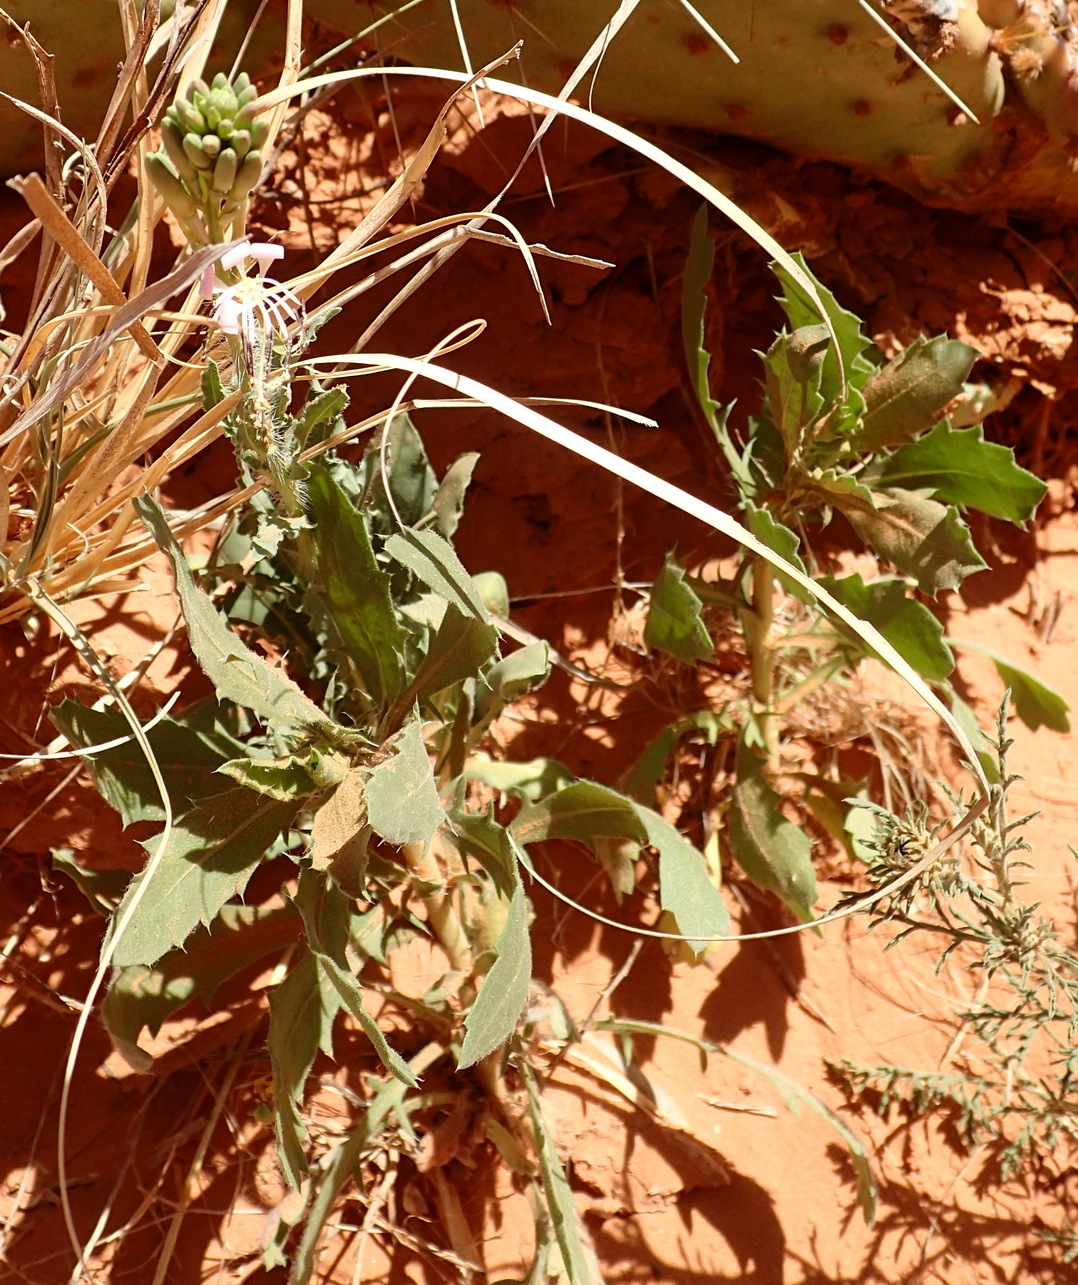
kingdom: Plantae
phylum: Tracheophyta
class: Magnoliopsida
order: Myrtales
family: Onagraceae
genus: Oenothera
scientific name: Oenothera cinerea
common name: Woolly beeblossom
